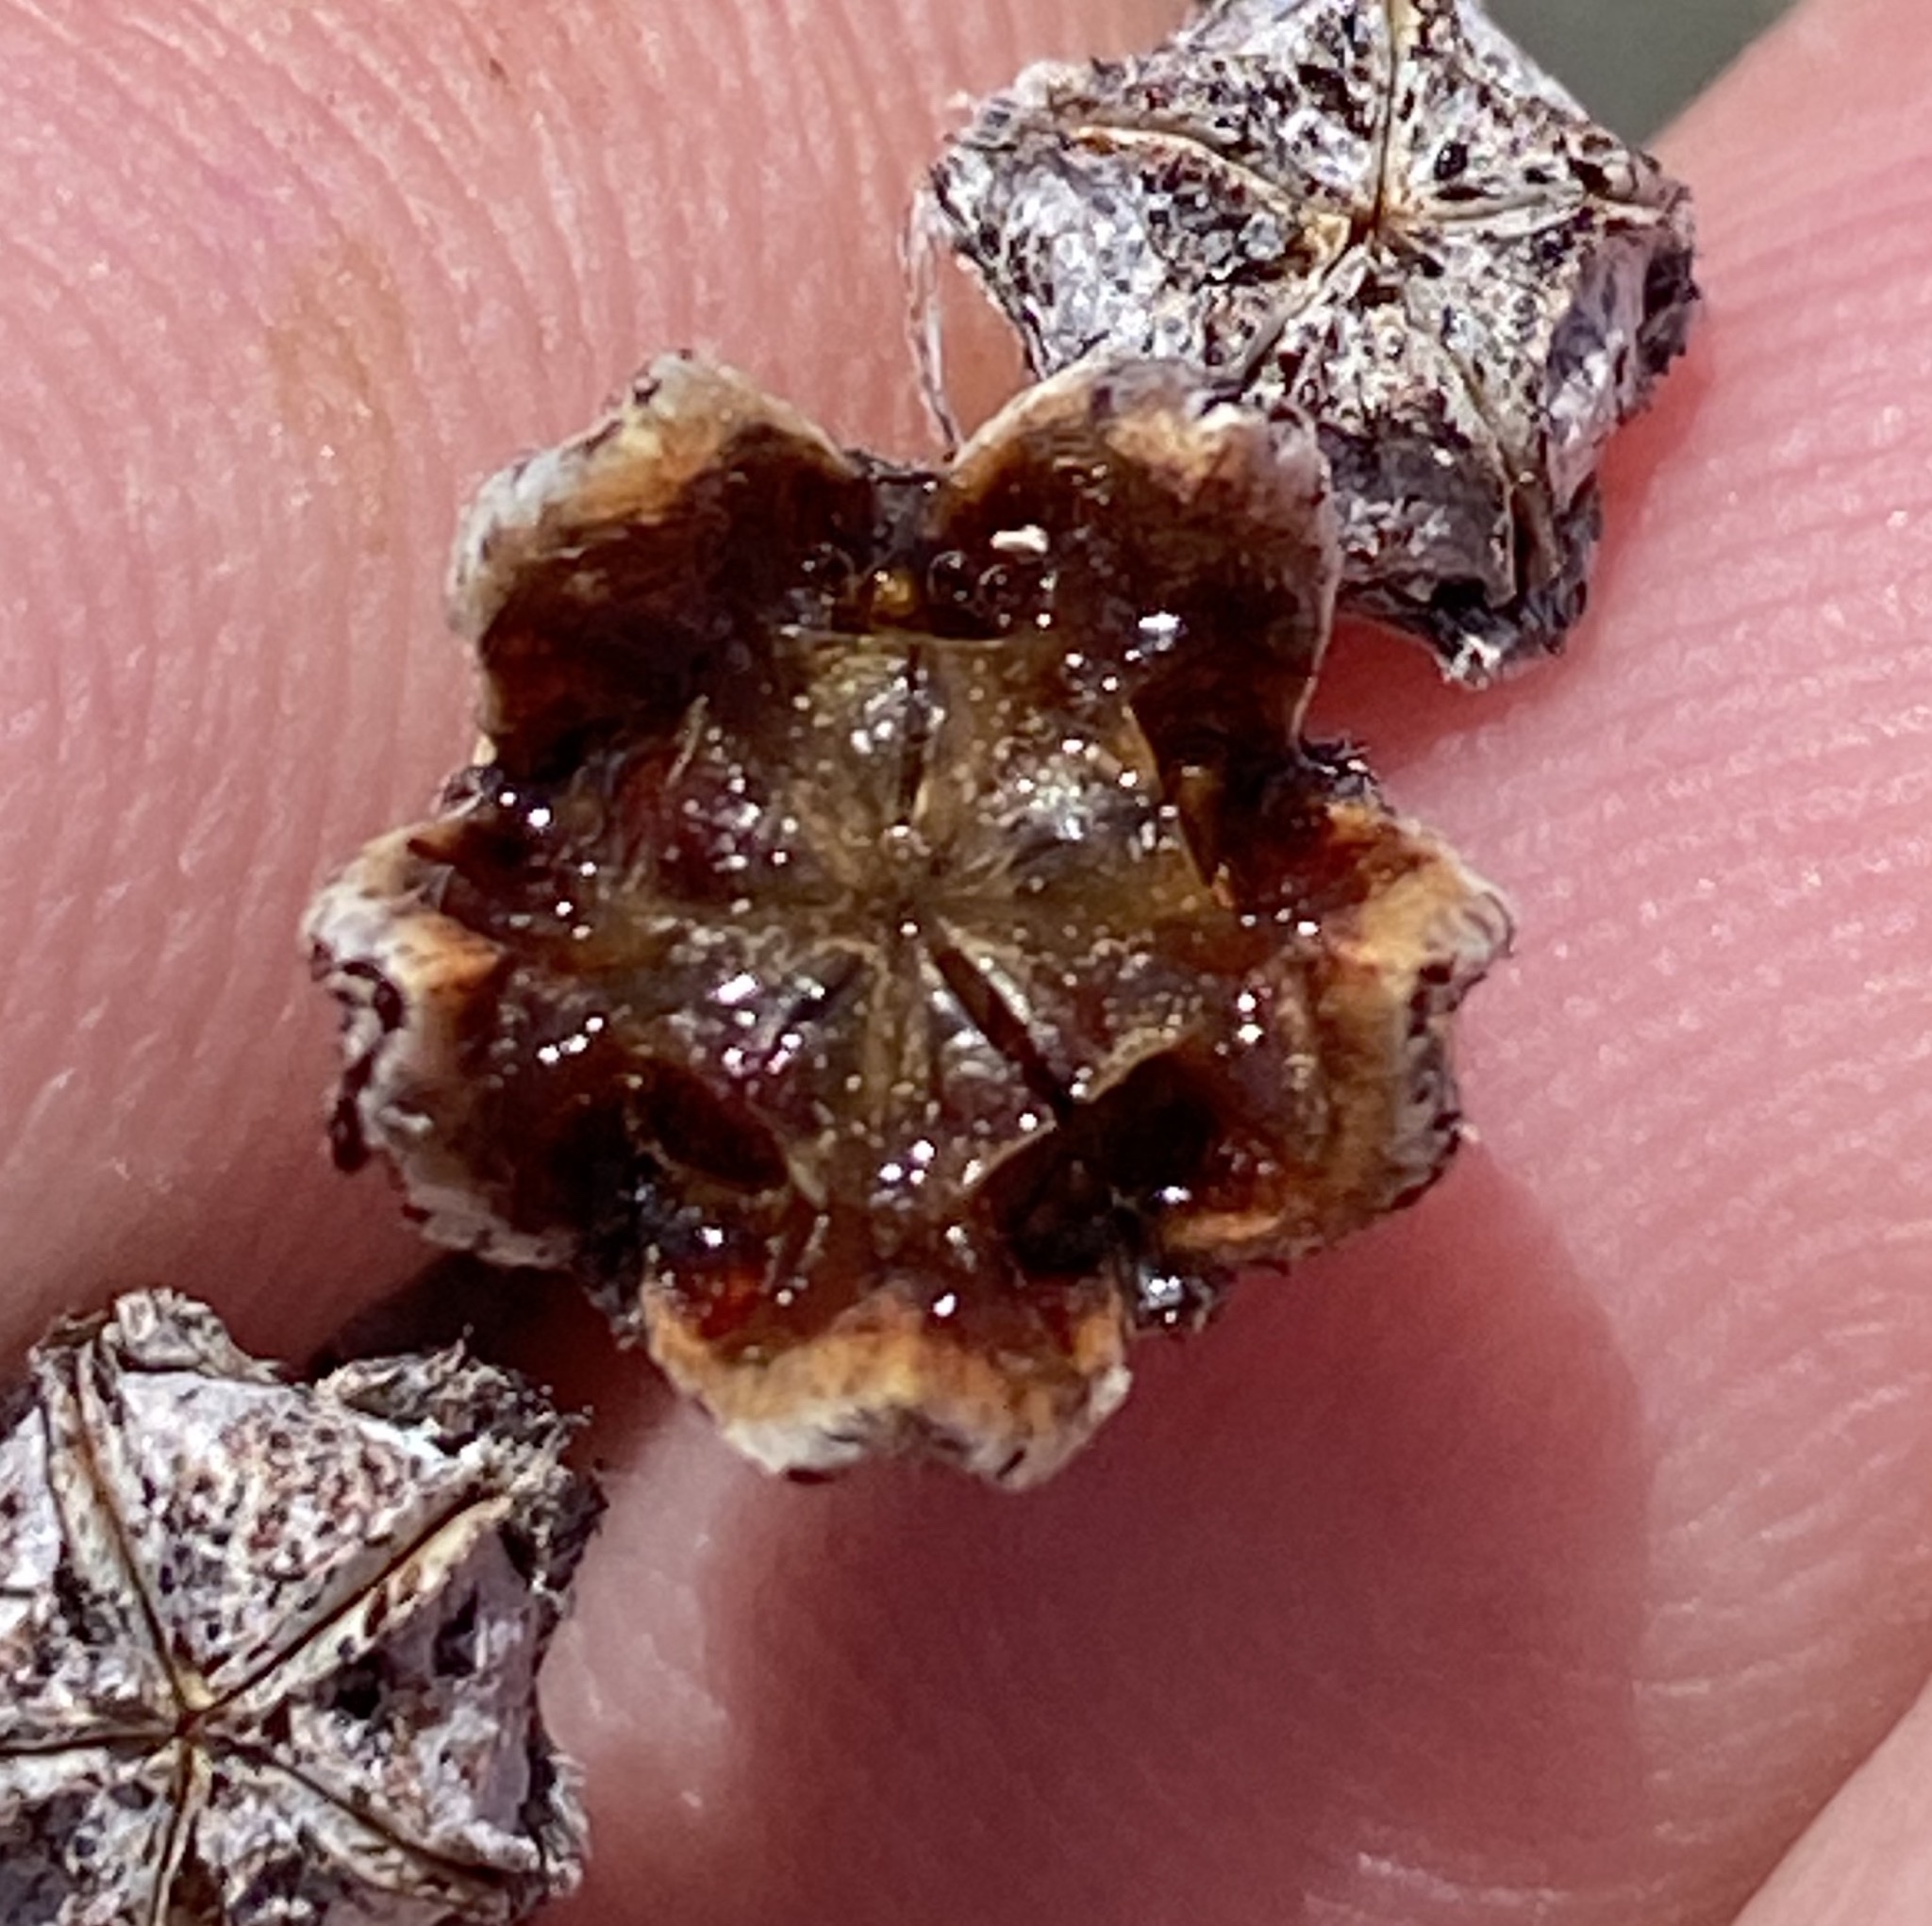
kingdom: Plantae
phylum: Tracheophyta
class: Magnoliopsida
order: Caryophyllales
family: Aizoaceae
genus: Ruschia
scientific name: Ruschia multiflora
